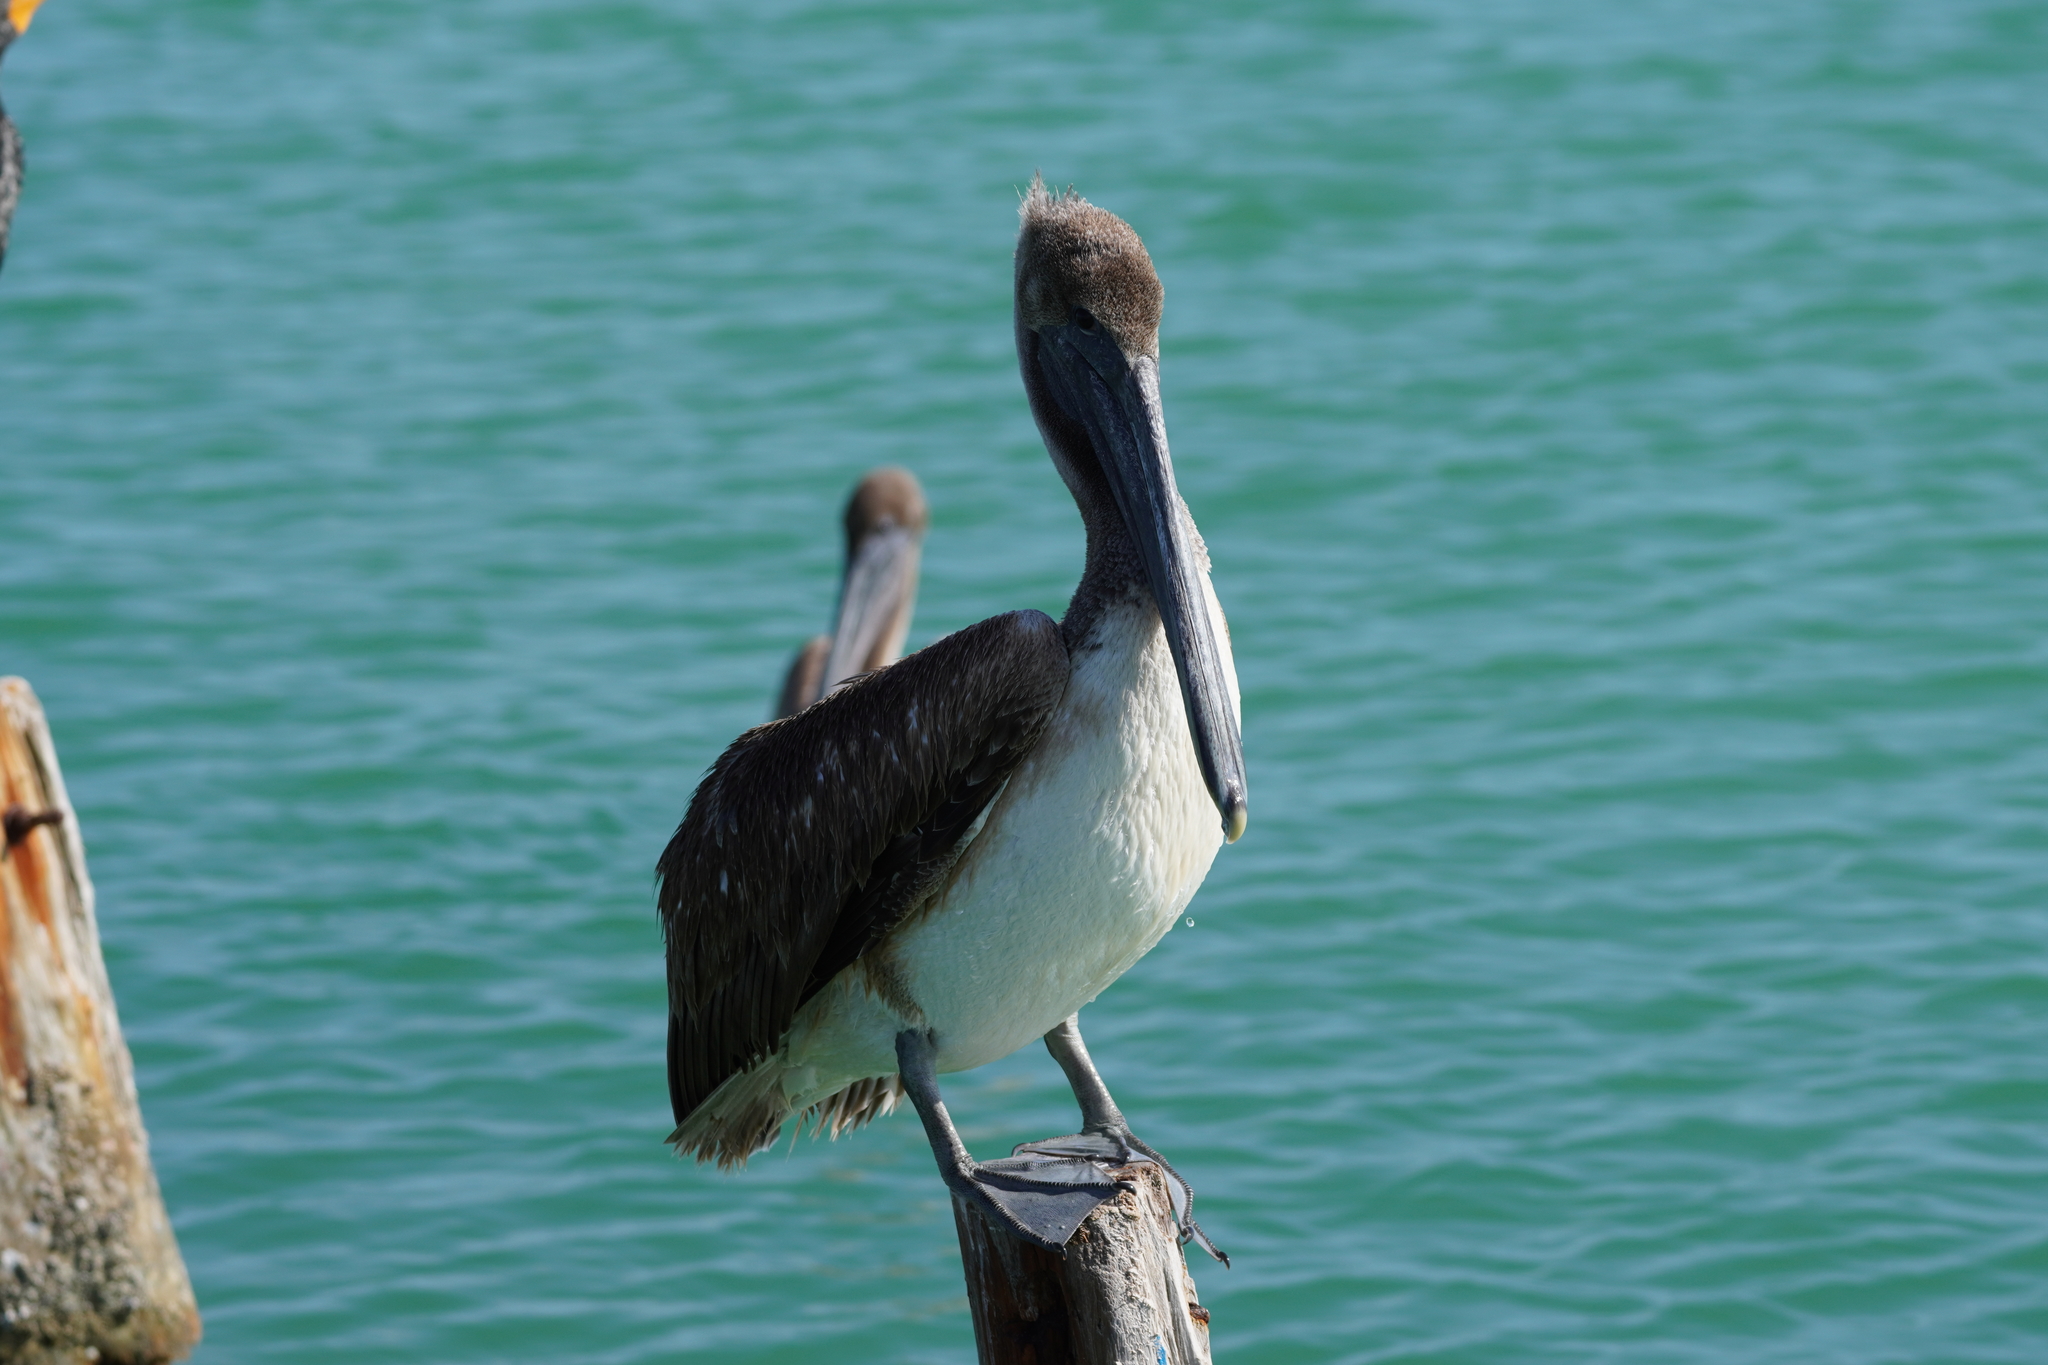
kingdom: Animalia
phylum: Chordata
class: Aves
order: Pelecaniformes
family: Pelecanidae
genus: Pelecanus
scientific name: Pelecanus occidentalis
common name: Brown pelican
